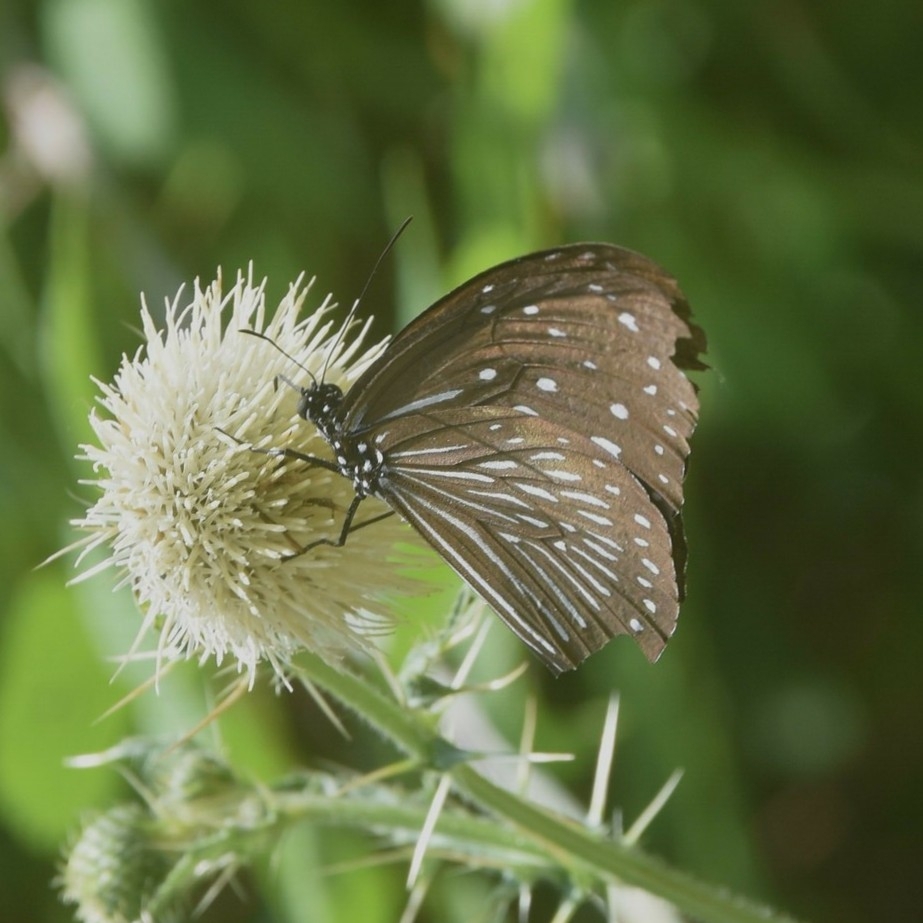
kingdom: Animalia
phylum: Arthropoda
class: Insecta
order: Lepidoptera
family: Nymphalidae
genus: Euploea
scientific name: Euploea mulciber
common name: Striped blue crow butterfly
